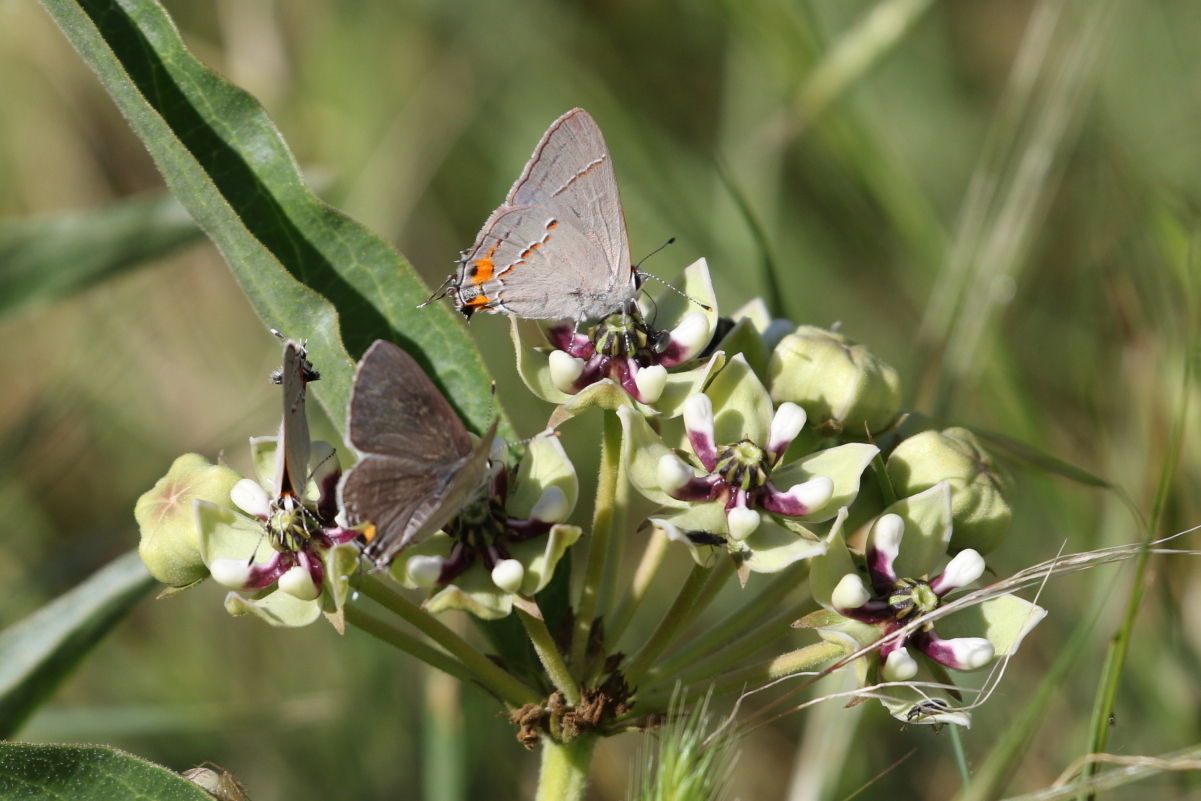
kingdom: Animalia
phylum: Arthropoda
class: Insecta
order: Lepidoptera
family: Lycaenidae
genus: Strymon
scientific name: Strymon melinus
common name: Gray hairstreak
